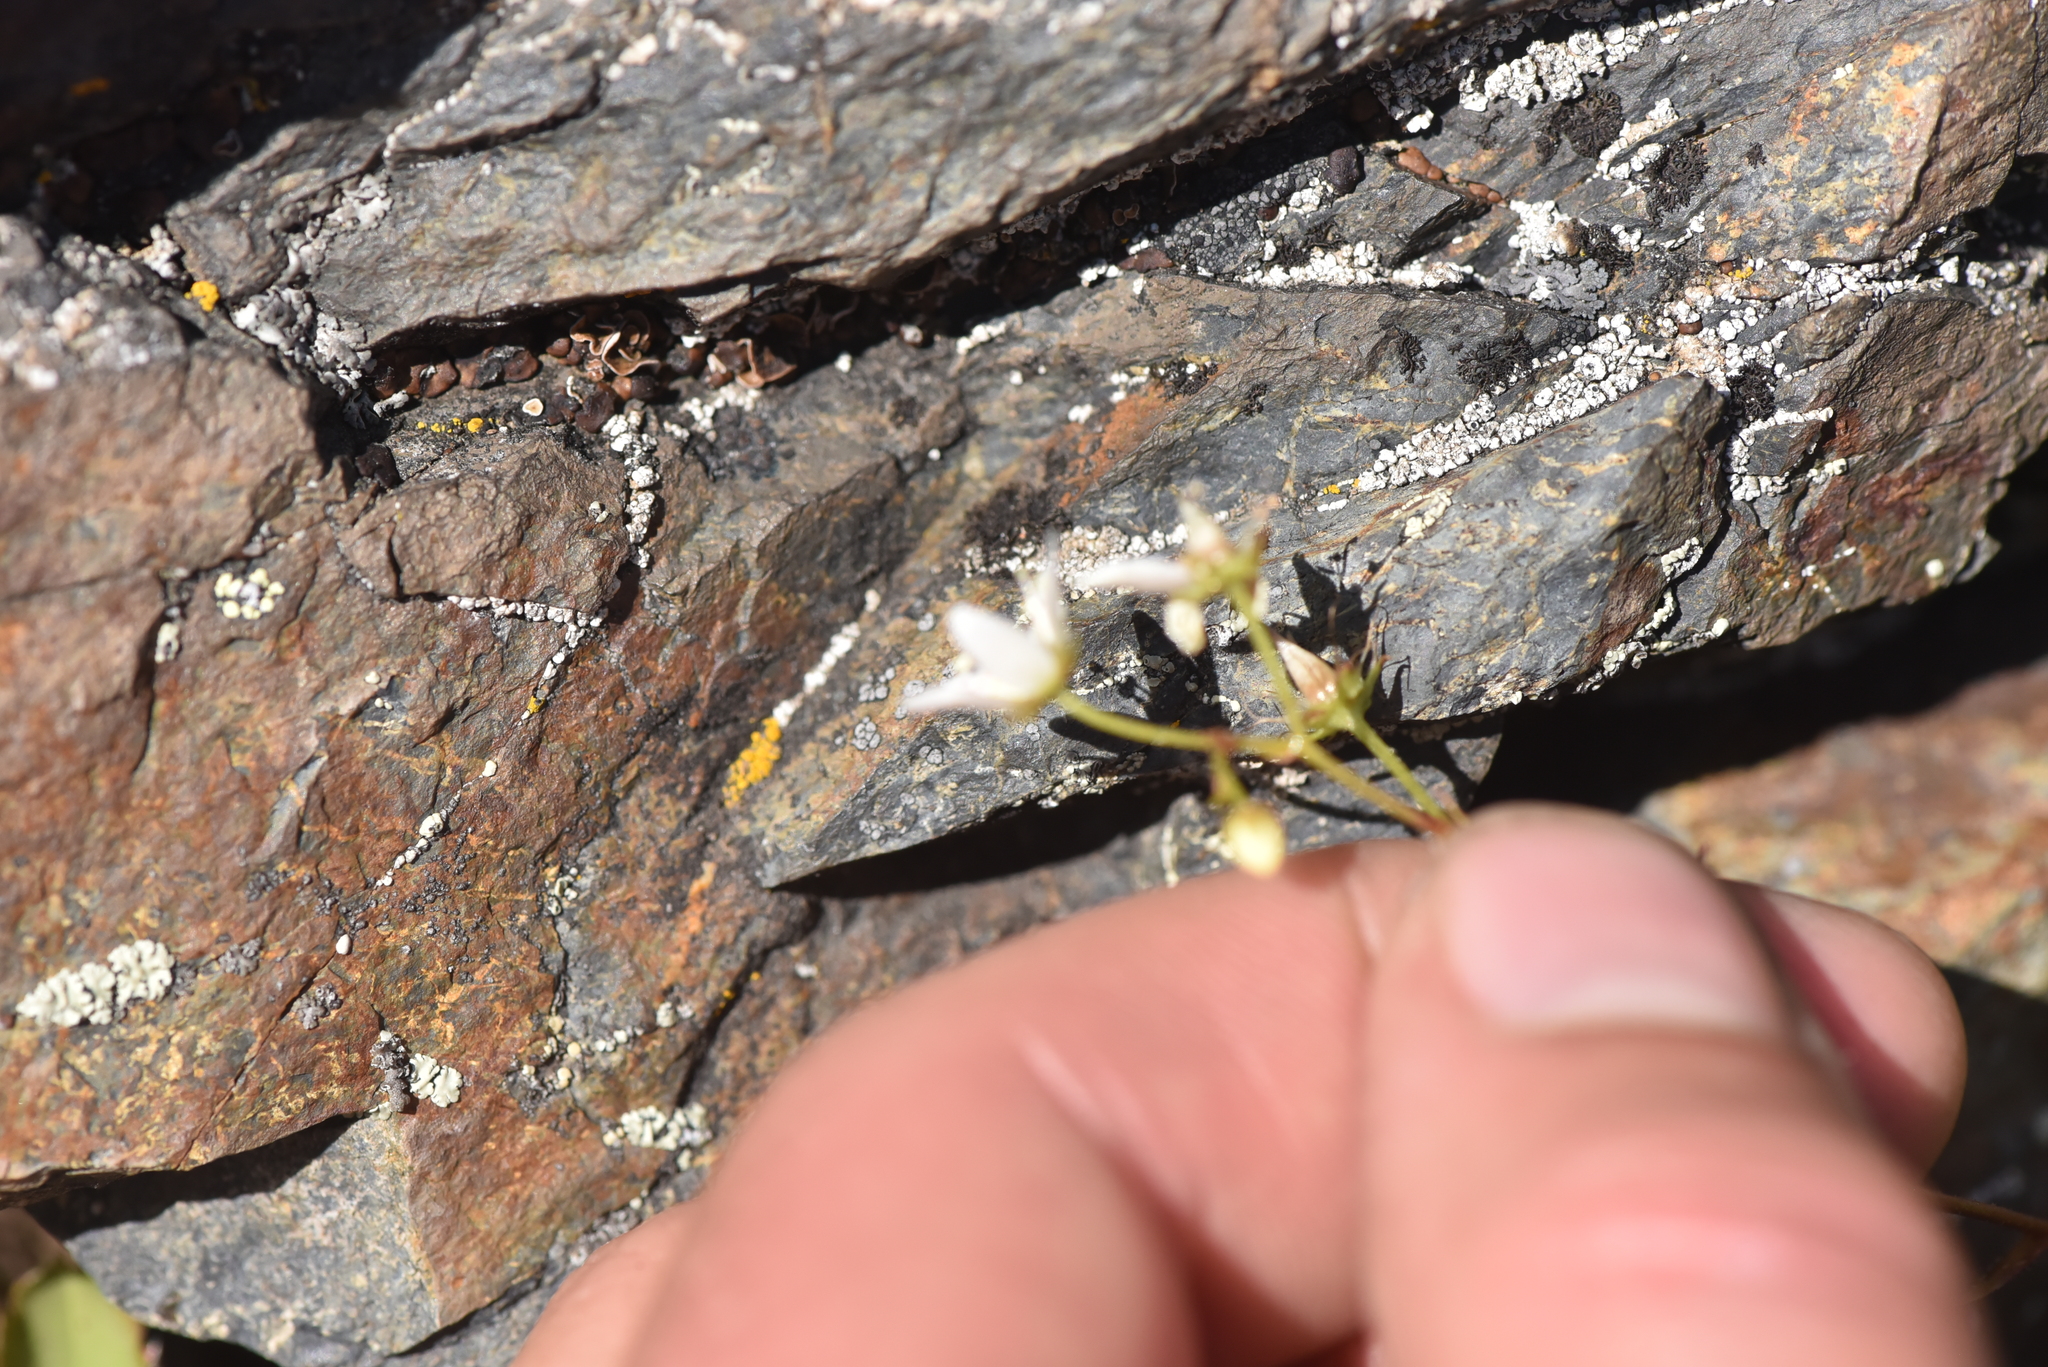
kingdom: Plantae
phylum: Tracheophyta
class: Magnoliopsida
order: Saxifragales
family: Saxifragaceae
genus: Saxifraga
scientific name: Saxifraga bronchialis
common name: Matted saxifrage
